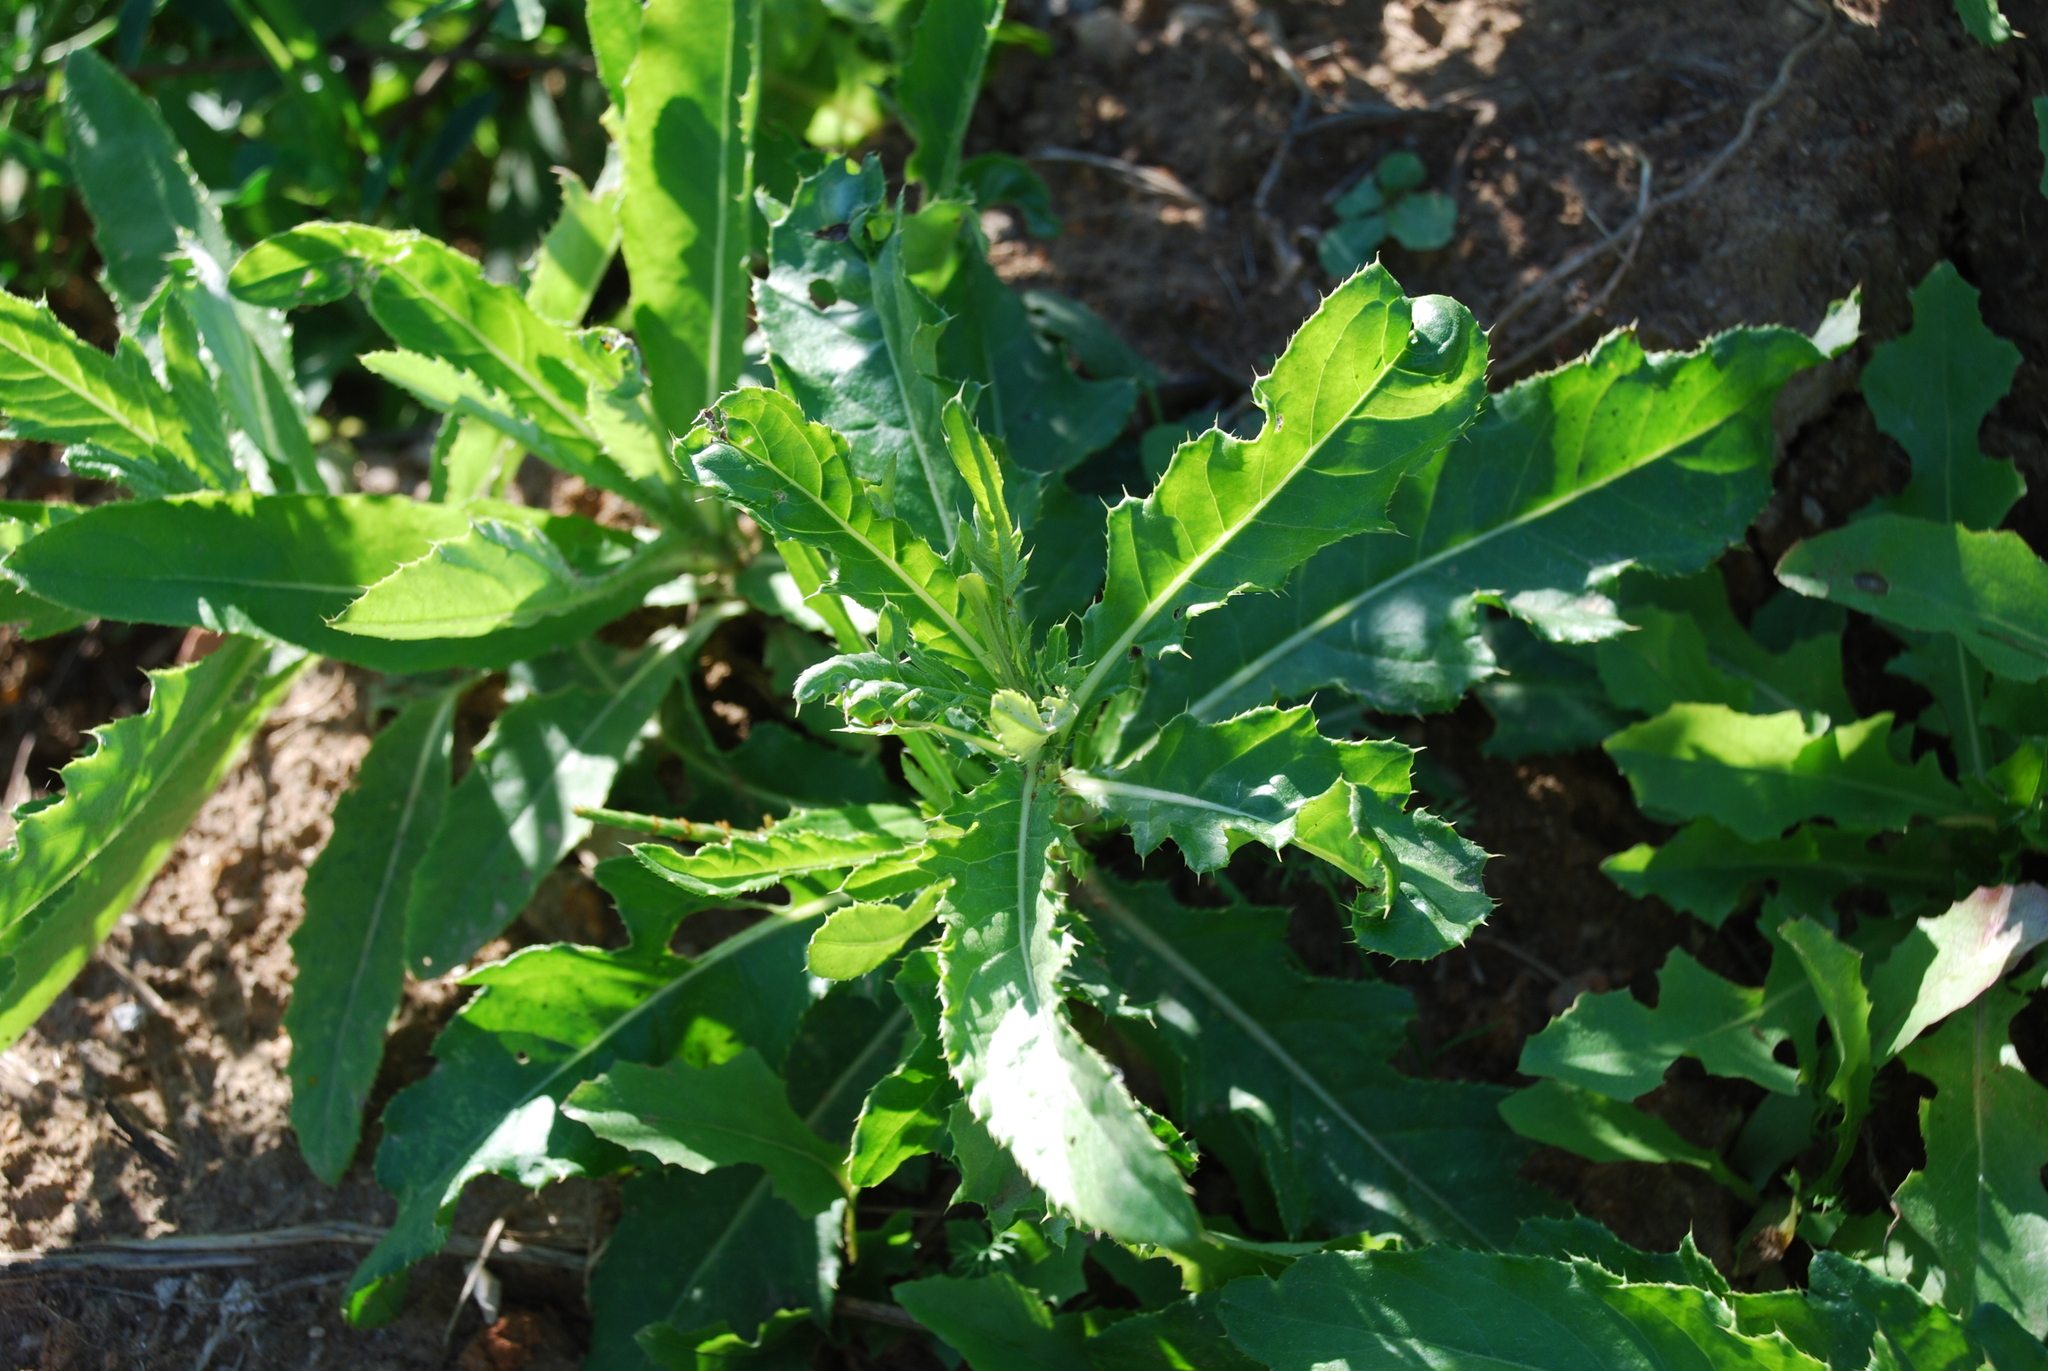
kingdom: Plantae
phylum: Tracheophyta
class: Magnoliopsida
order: Asterales
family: Asteraceae
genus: Cirsium
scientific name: Cirsium arvense
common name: Creeping thistle
